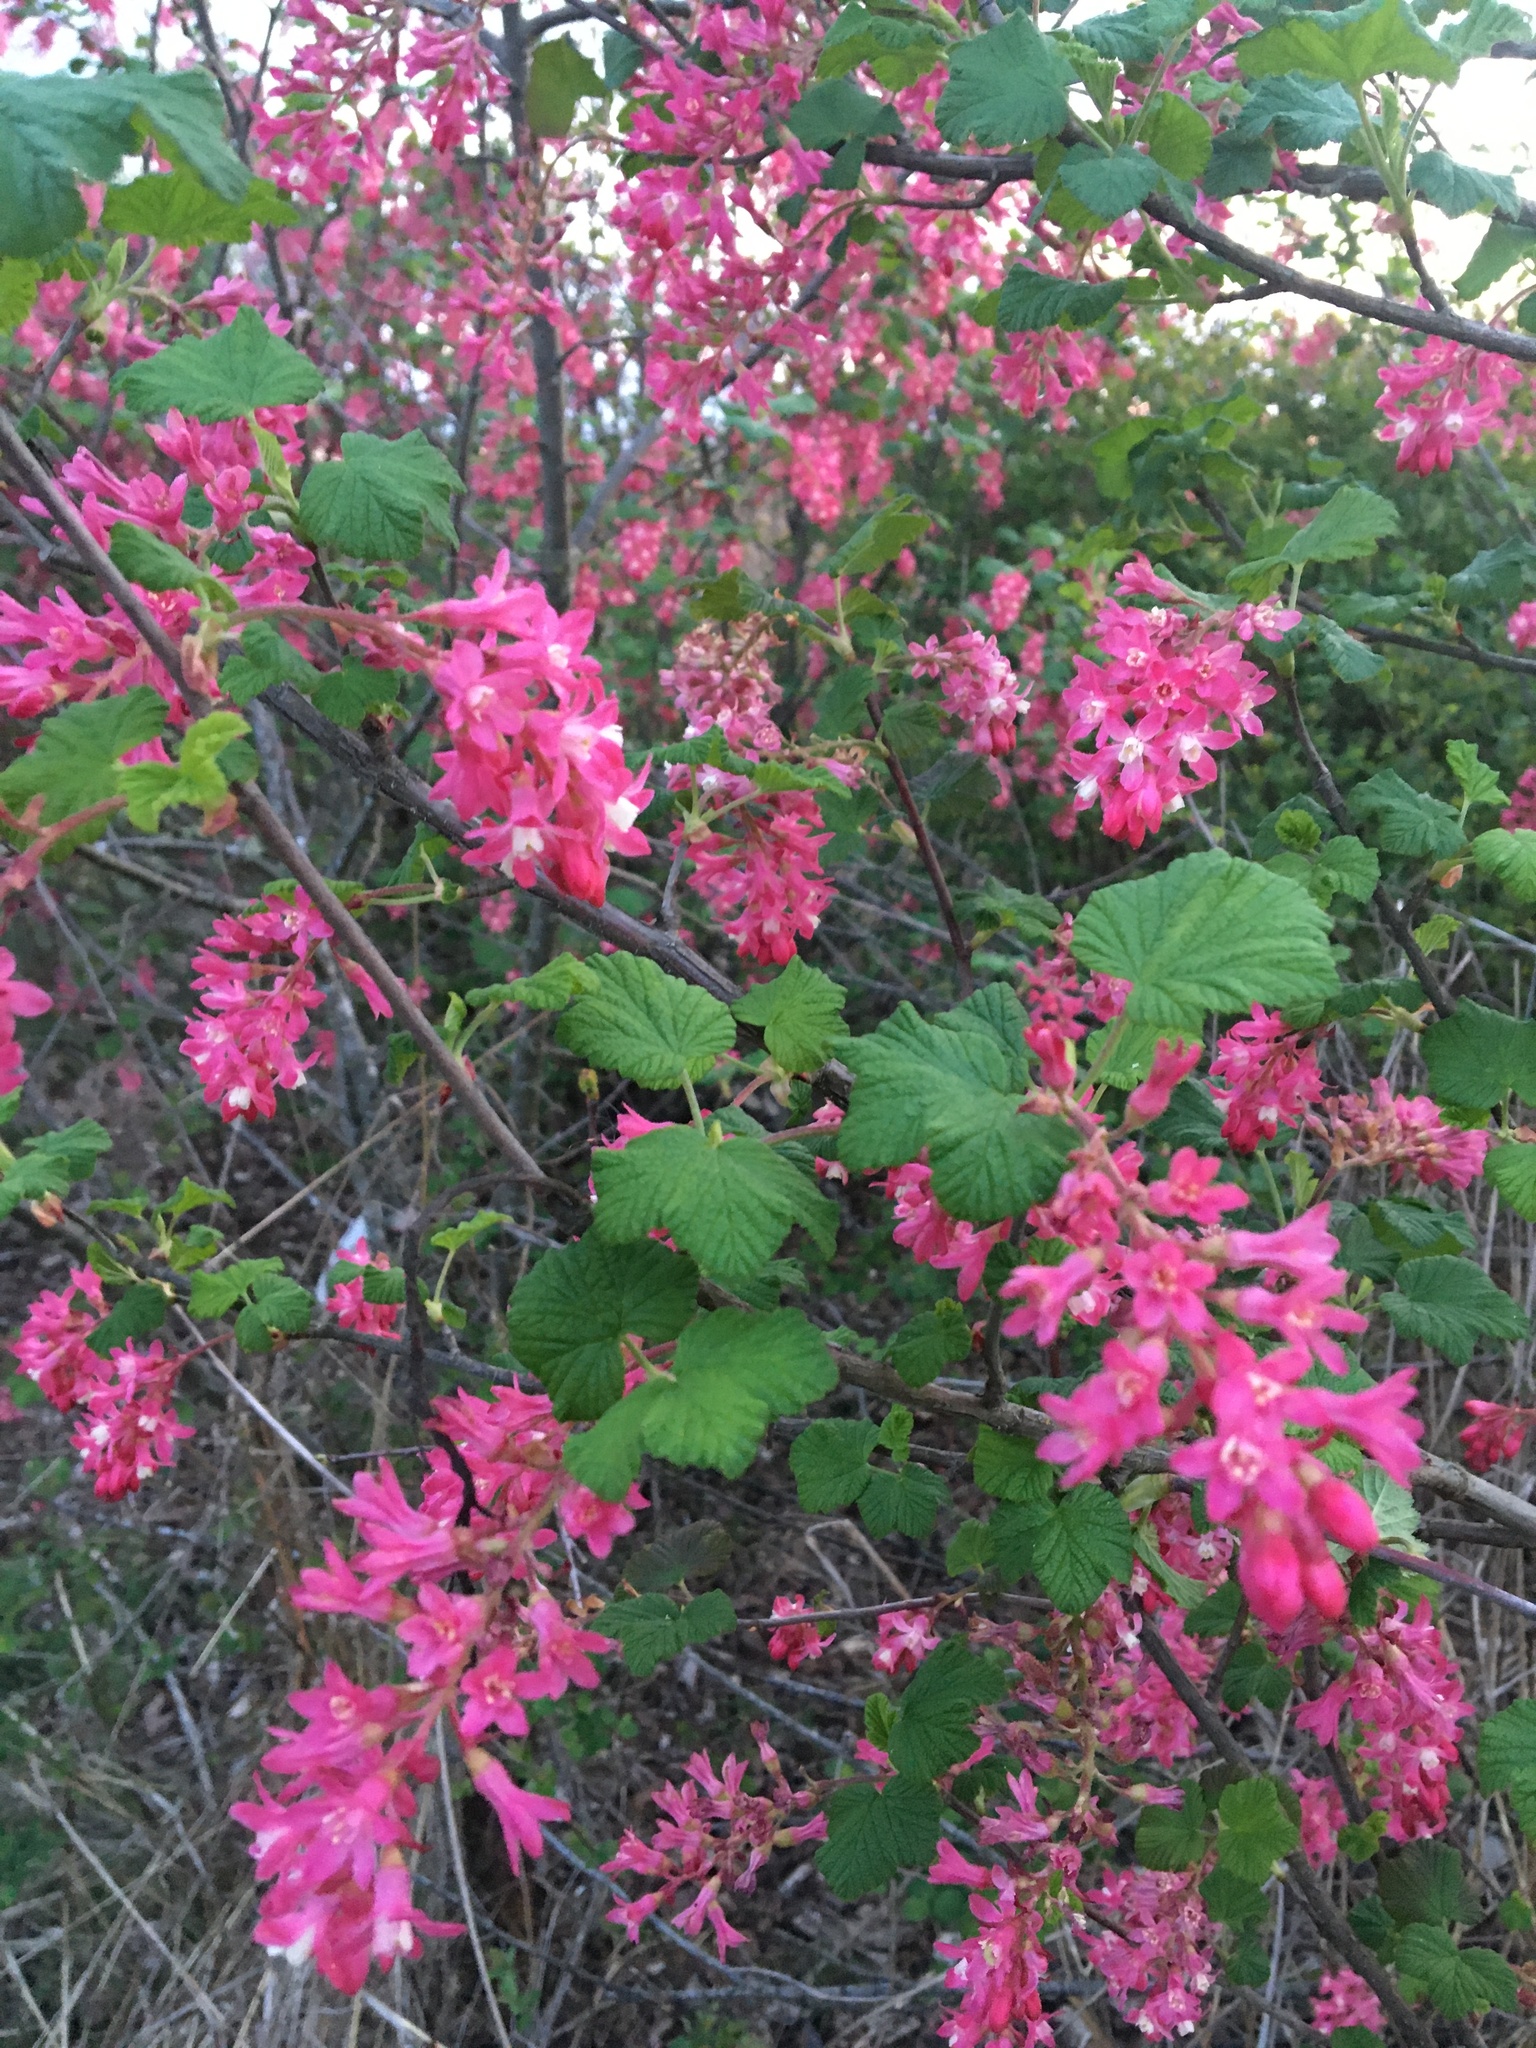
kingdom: Plantae
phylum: Tracheophyta
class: Magnoliopsida
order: Saxifragales
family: Grossulariaceae
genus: Ribes
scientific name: Ribes sanguineum
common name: Flowering currant
